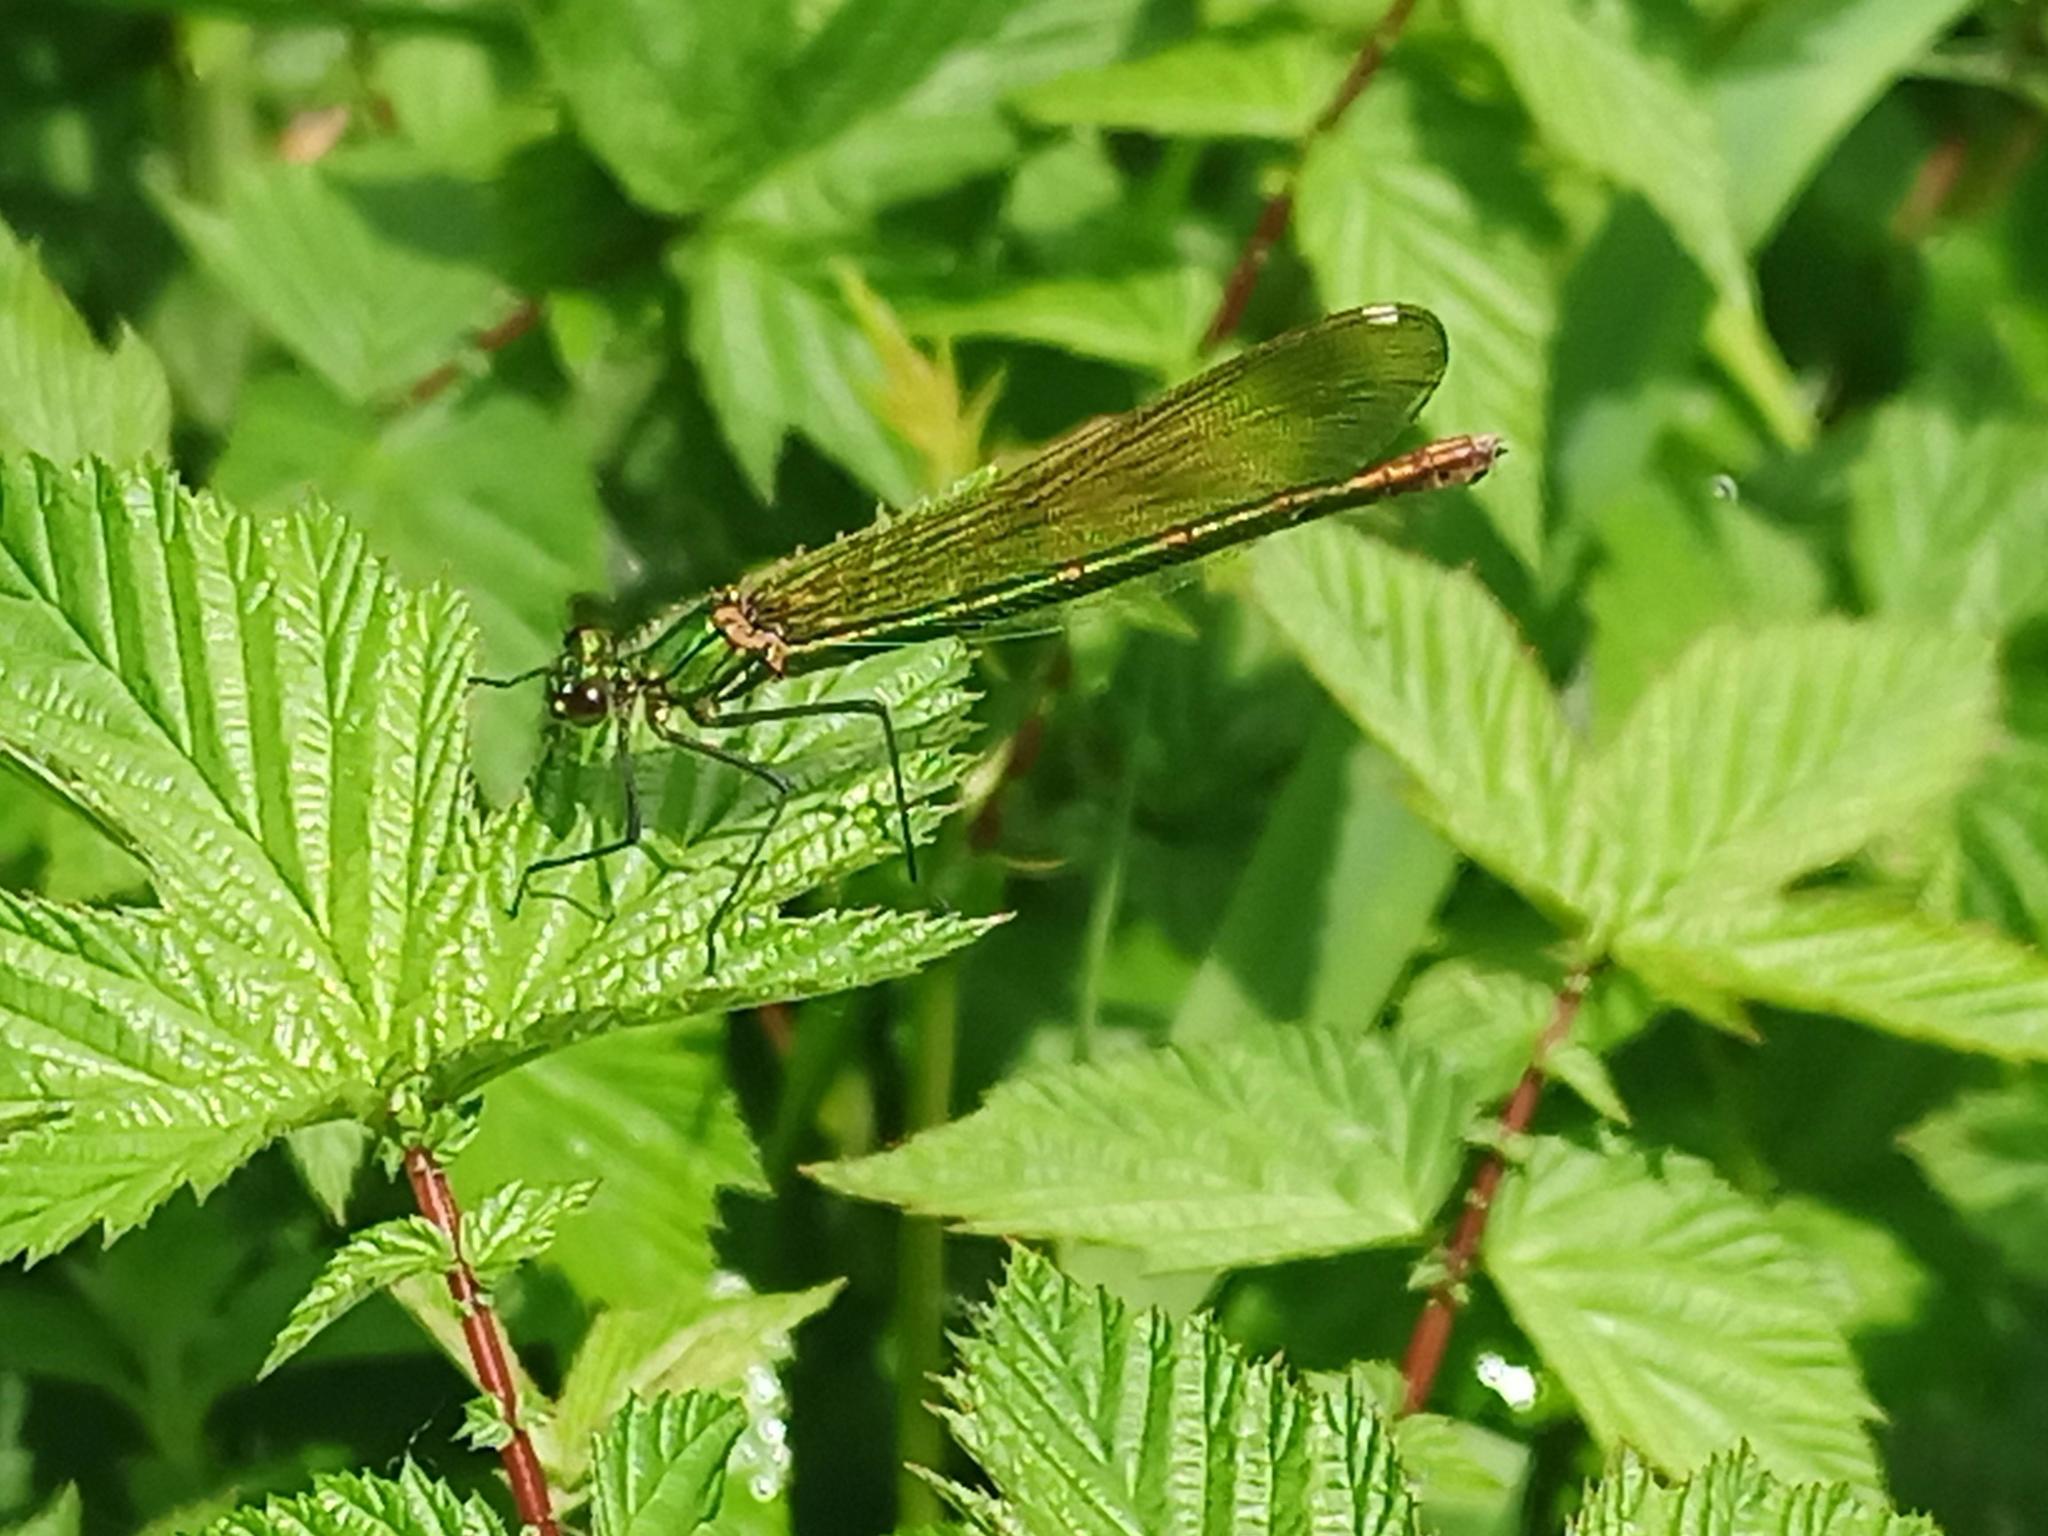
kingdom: Animalia
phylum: Arthropoda
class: Insecta
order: Odonata
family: Calopterygidae
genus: Calopteryx
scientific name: Calopteryx xanthostoma
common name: Western demoiselle
